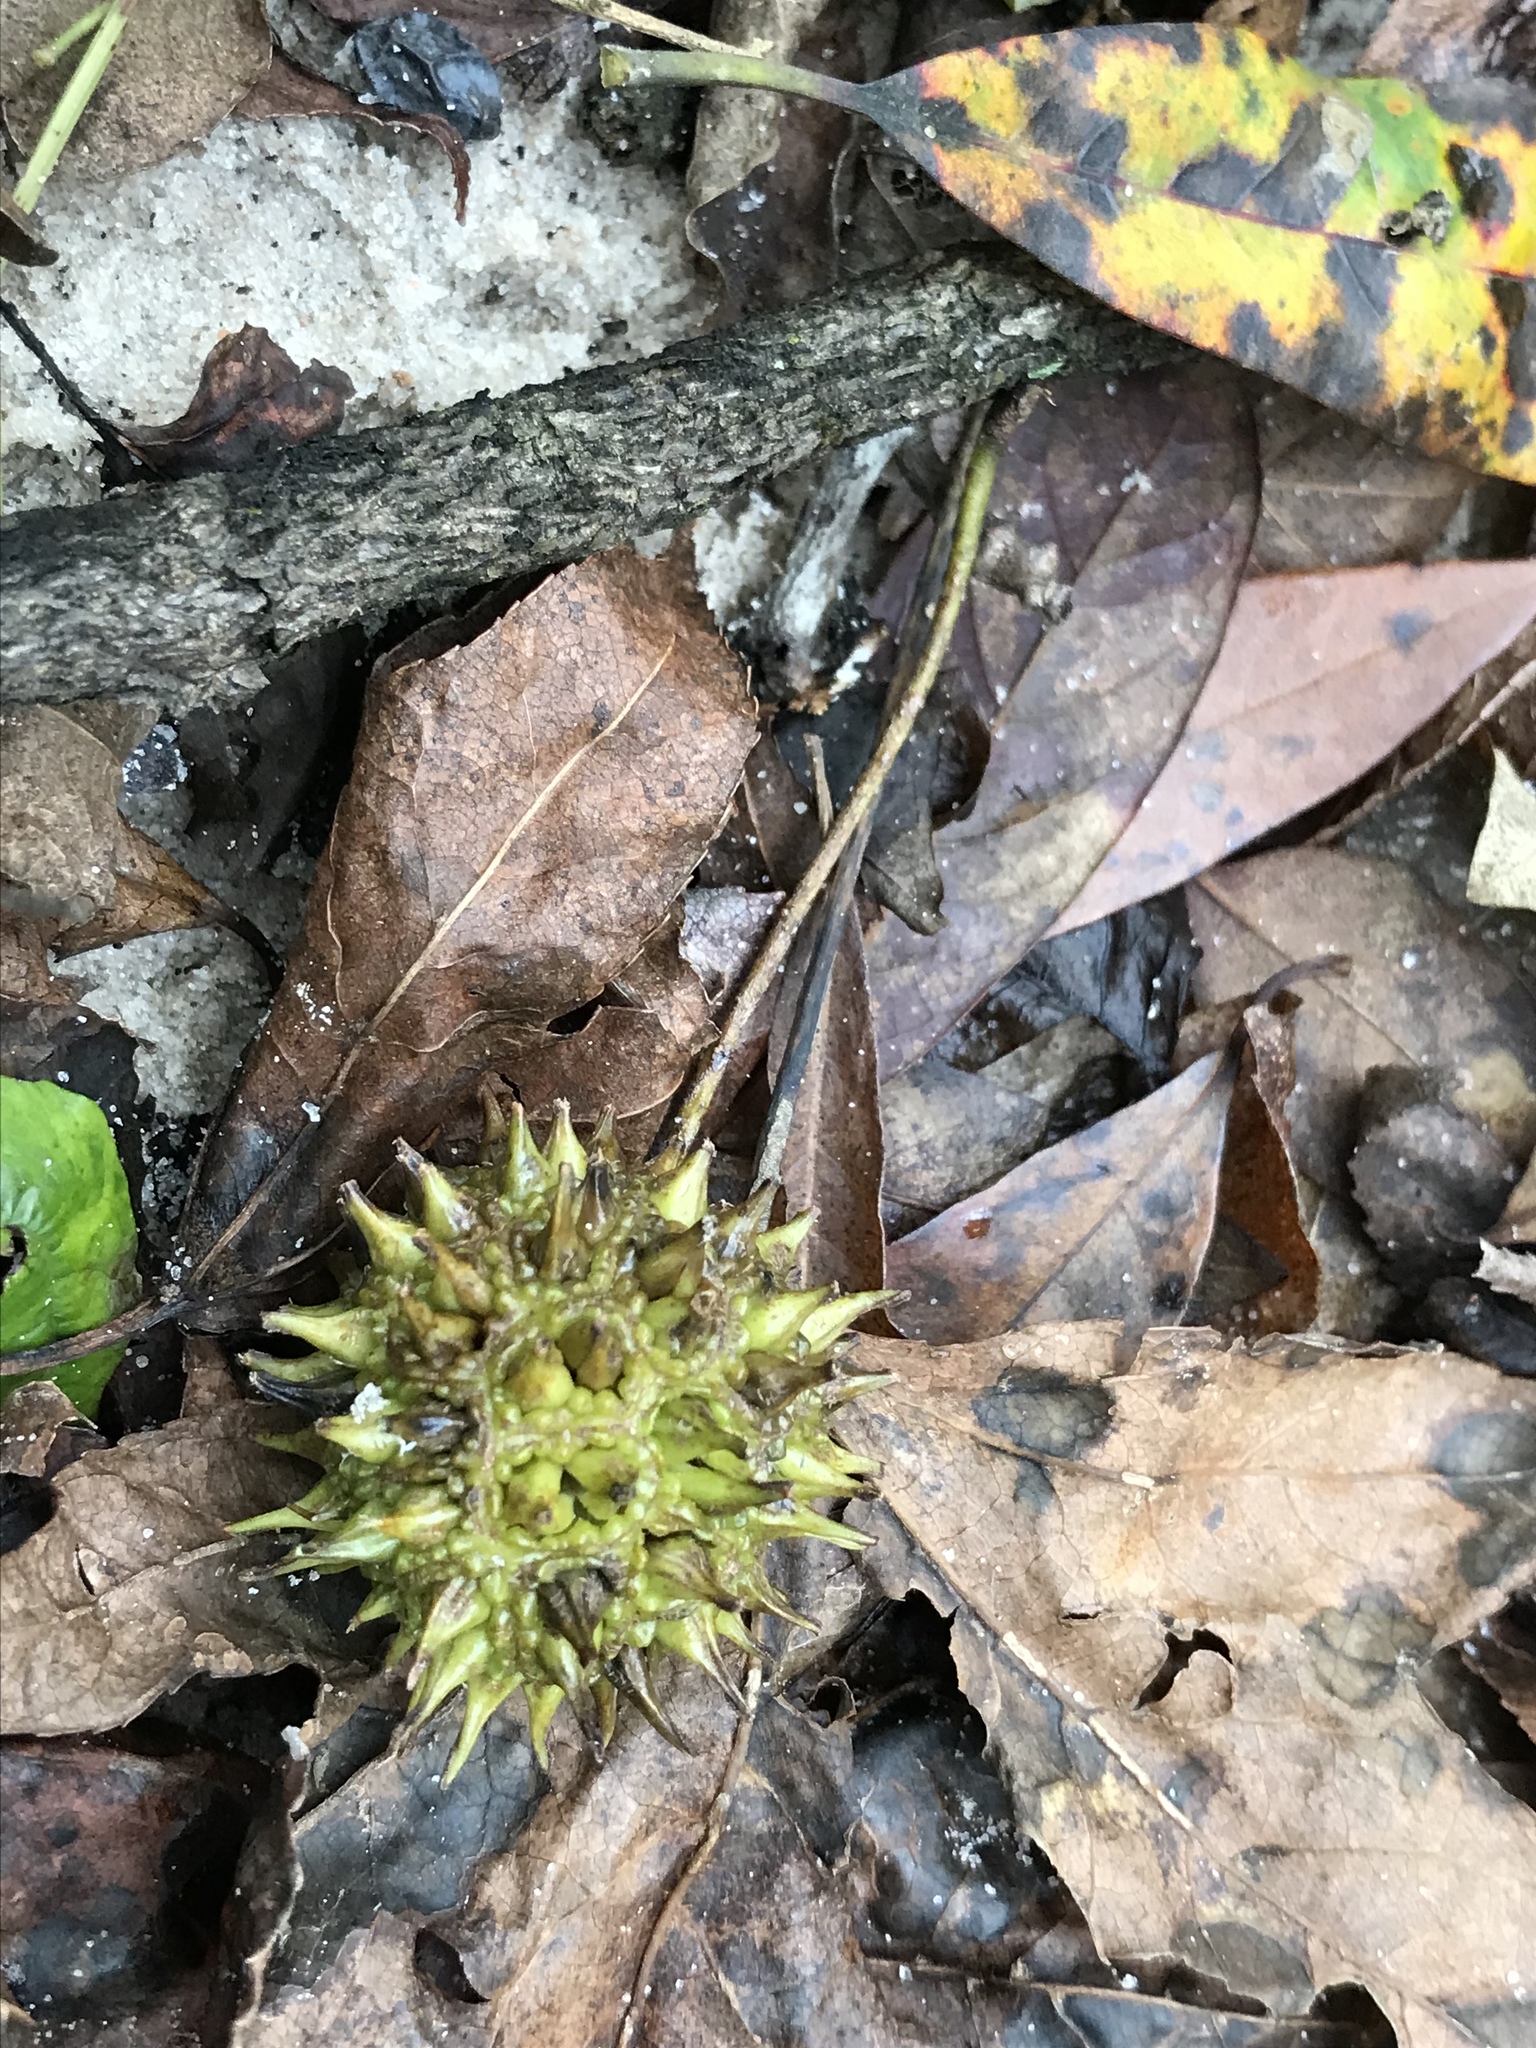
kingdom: Plantae
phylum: Tracheophyta
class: Magnoliopsida
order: Saxifragales
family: Altingiaceae
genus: Liquidambar
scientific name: Liquidambar styraciflua
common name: Sweet gum
